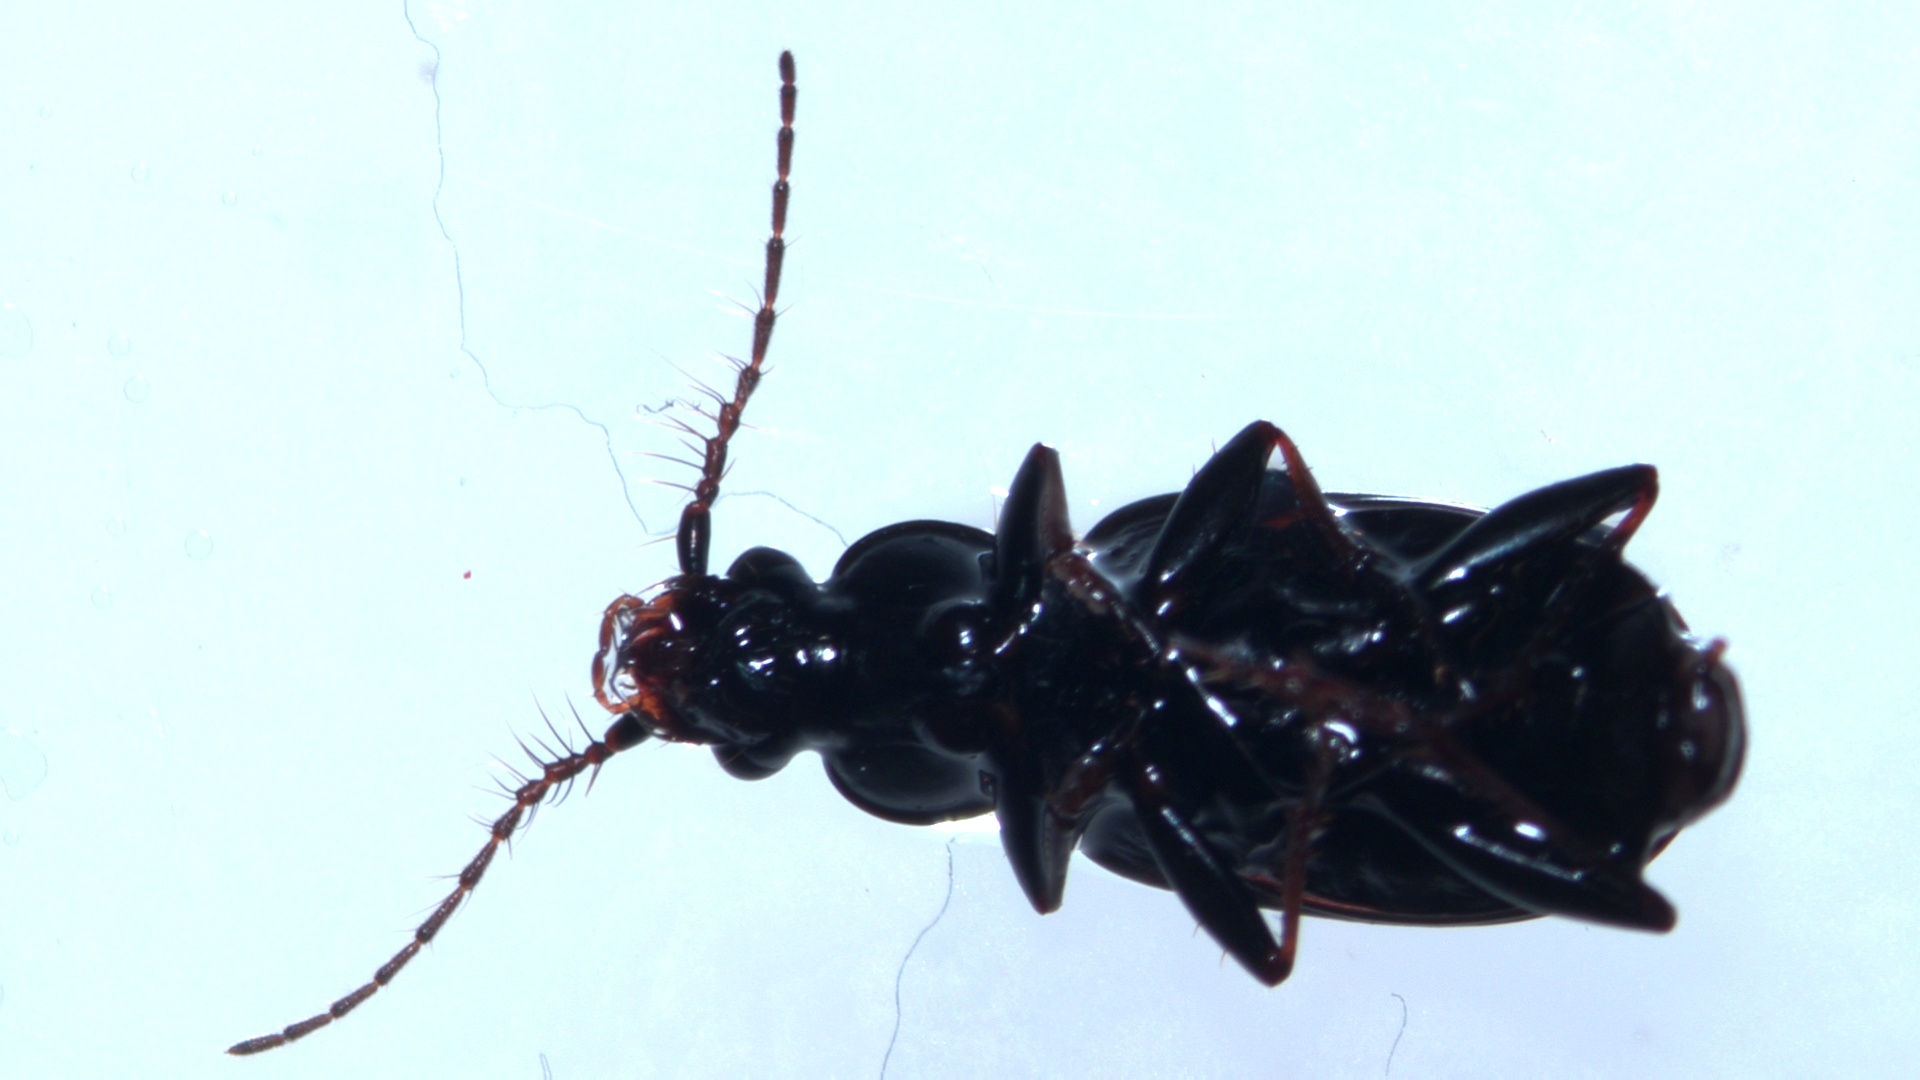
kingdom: Animalia
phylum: Arthropoda
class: Insecta
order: Coleoptera
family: Carabidae
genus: Loricera
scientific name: Loricera pilicornis
